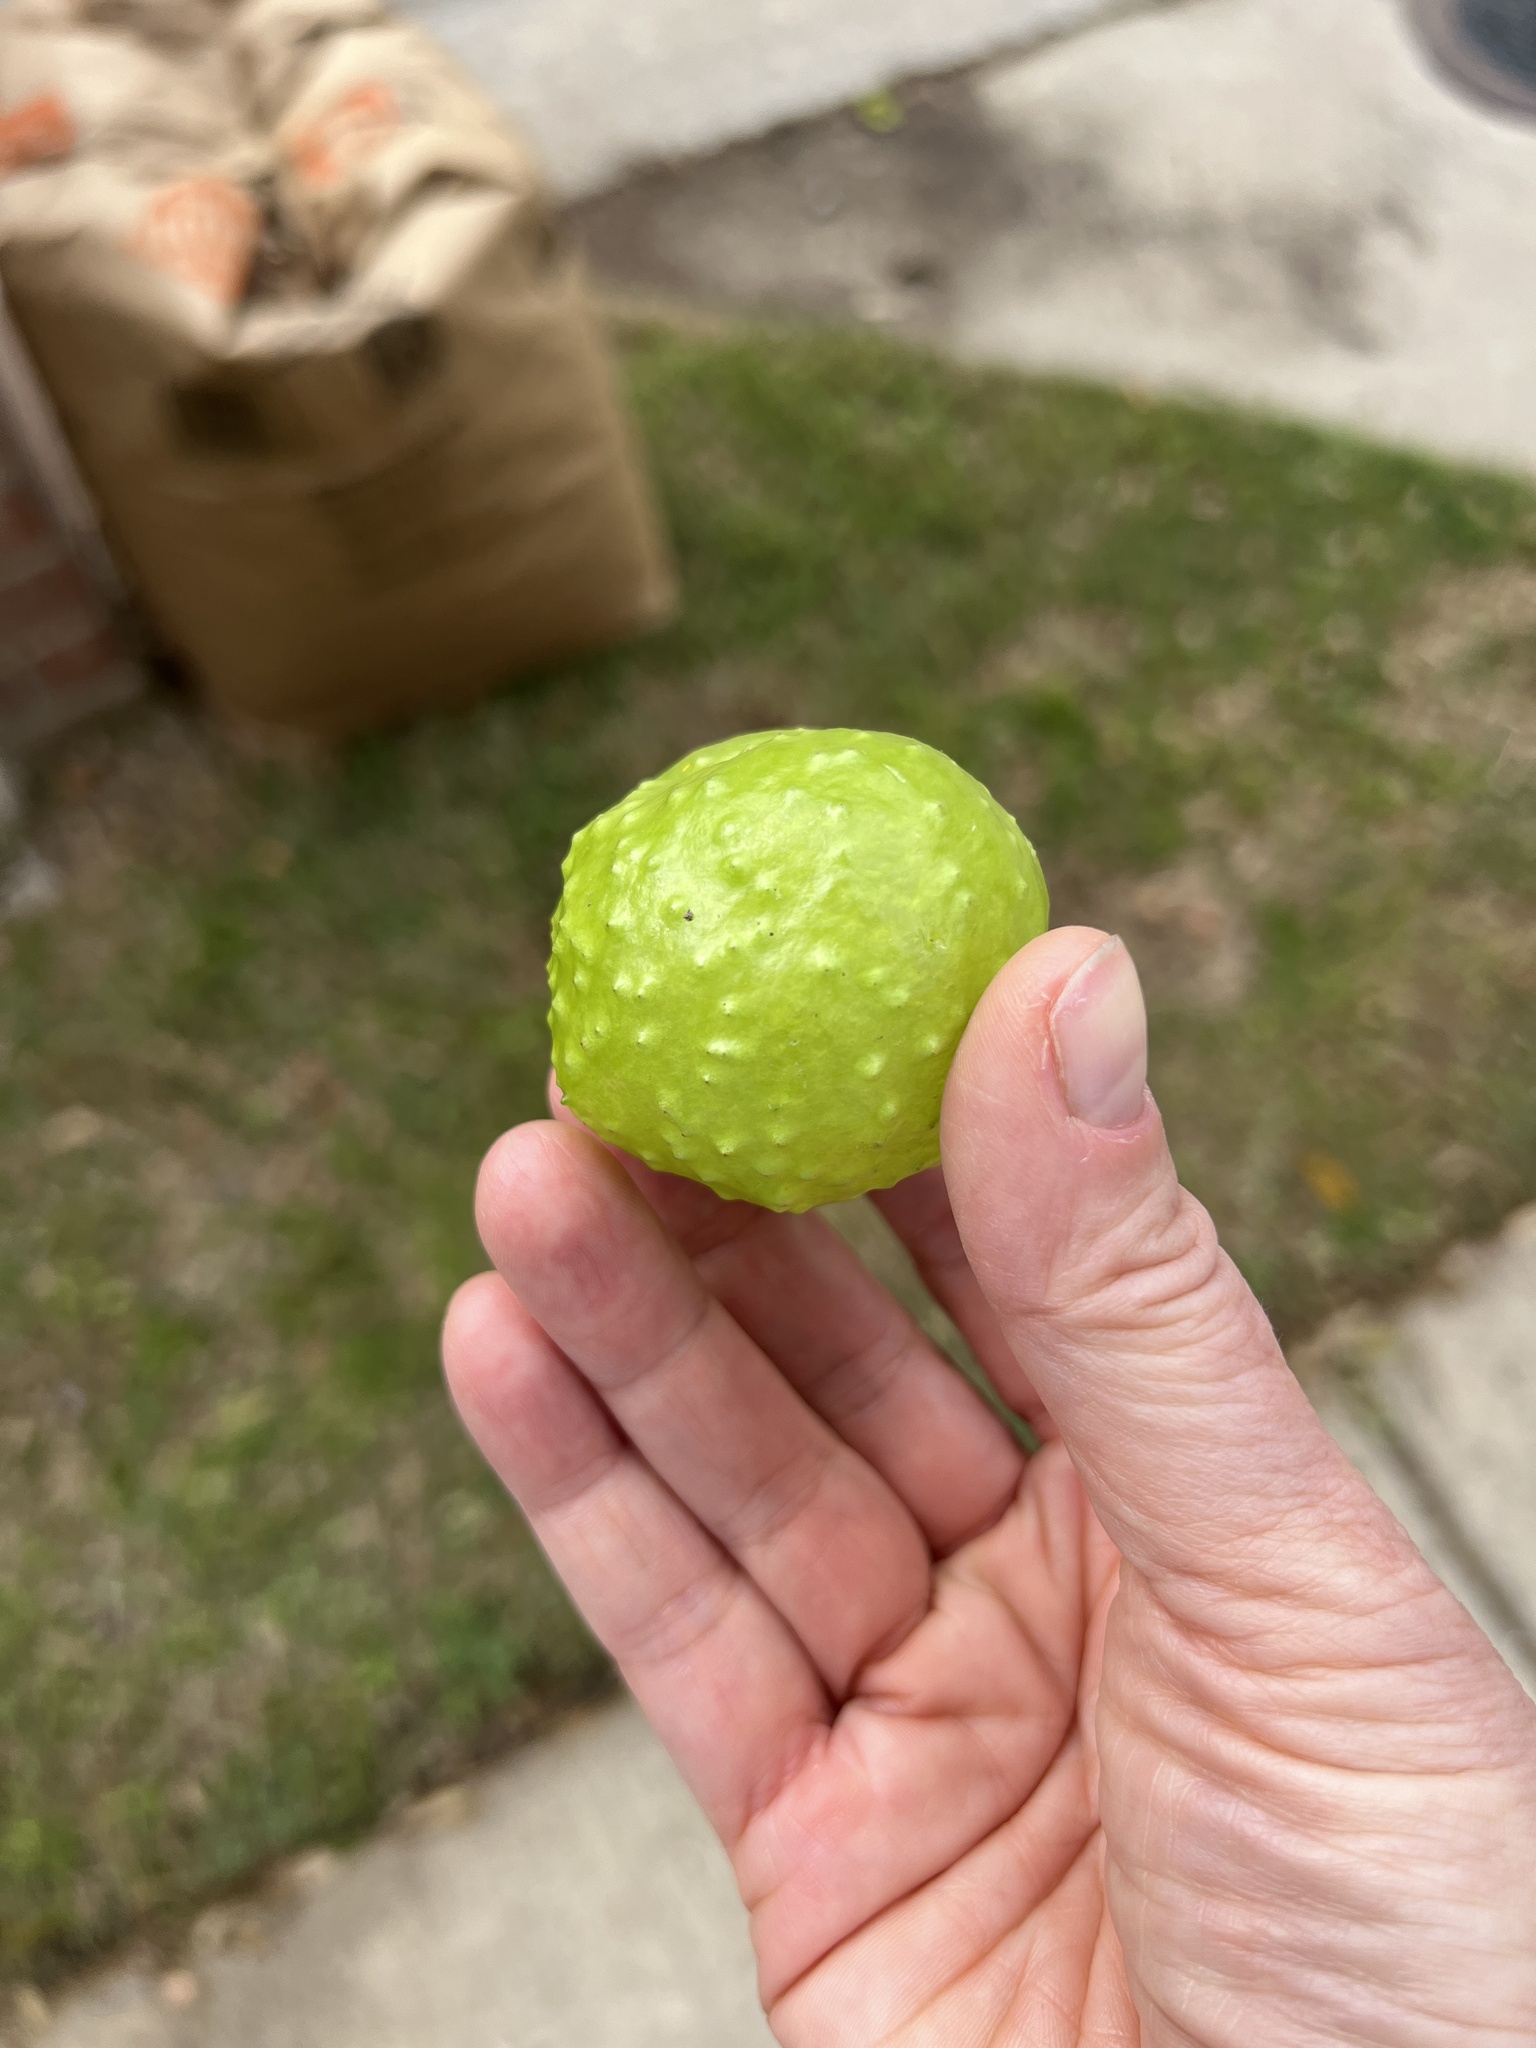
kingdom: Animalia
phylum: Arthropoda
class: Insecta
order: Hymenoptera
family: Cynipidae
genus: Amphibolips
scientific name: Amphibolips
